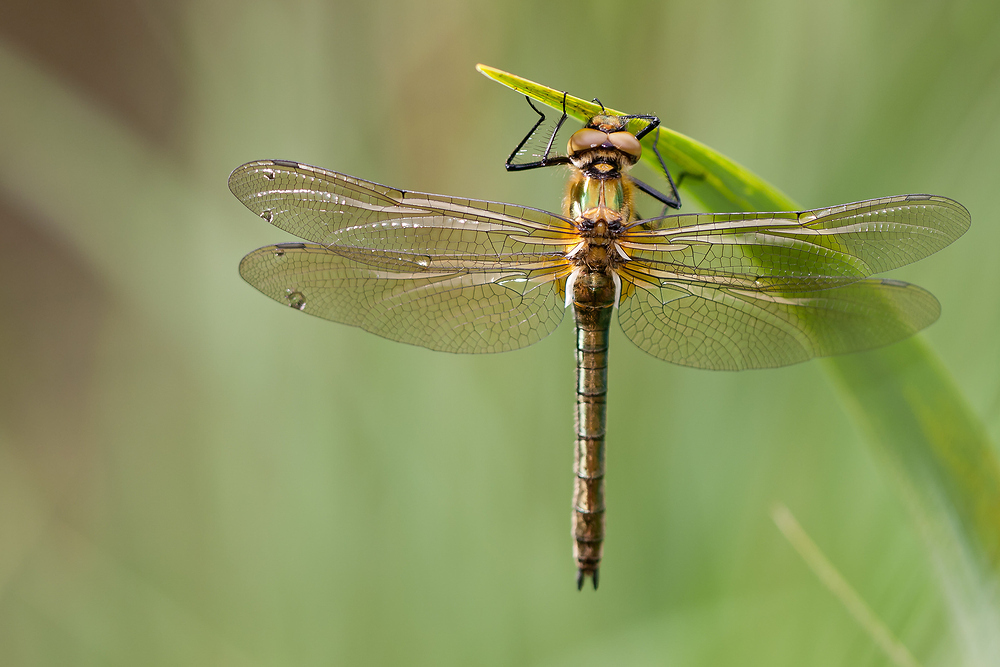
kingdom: Animalia
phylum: Arthropoda
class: Insecta
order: Odonata
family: Corduliidae
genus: Cordulia
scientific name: Cordulia aenea
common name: Downy emerald
